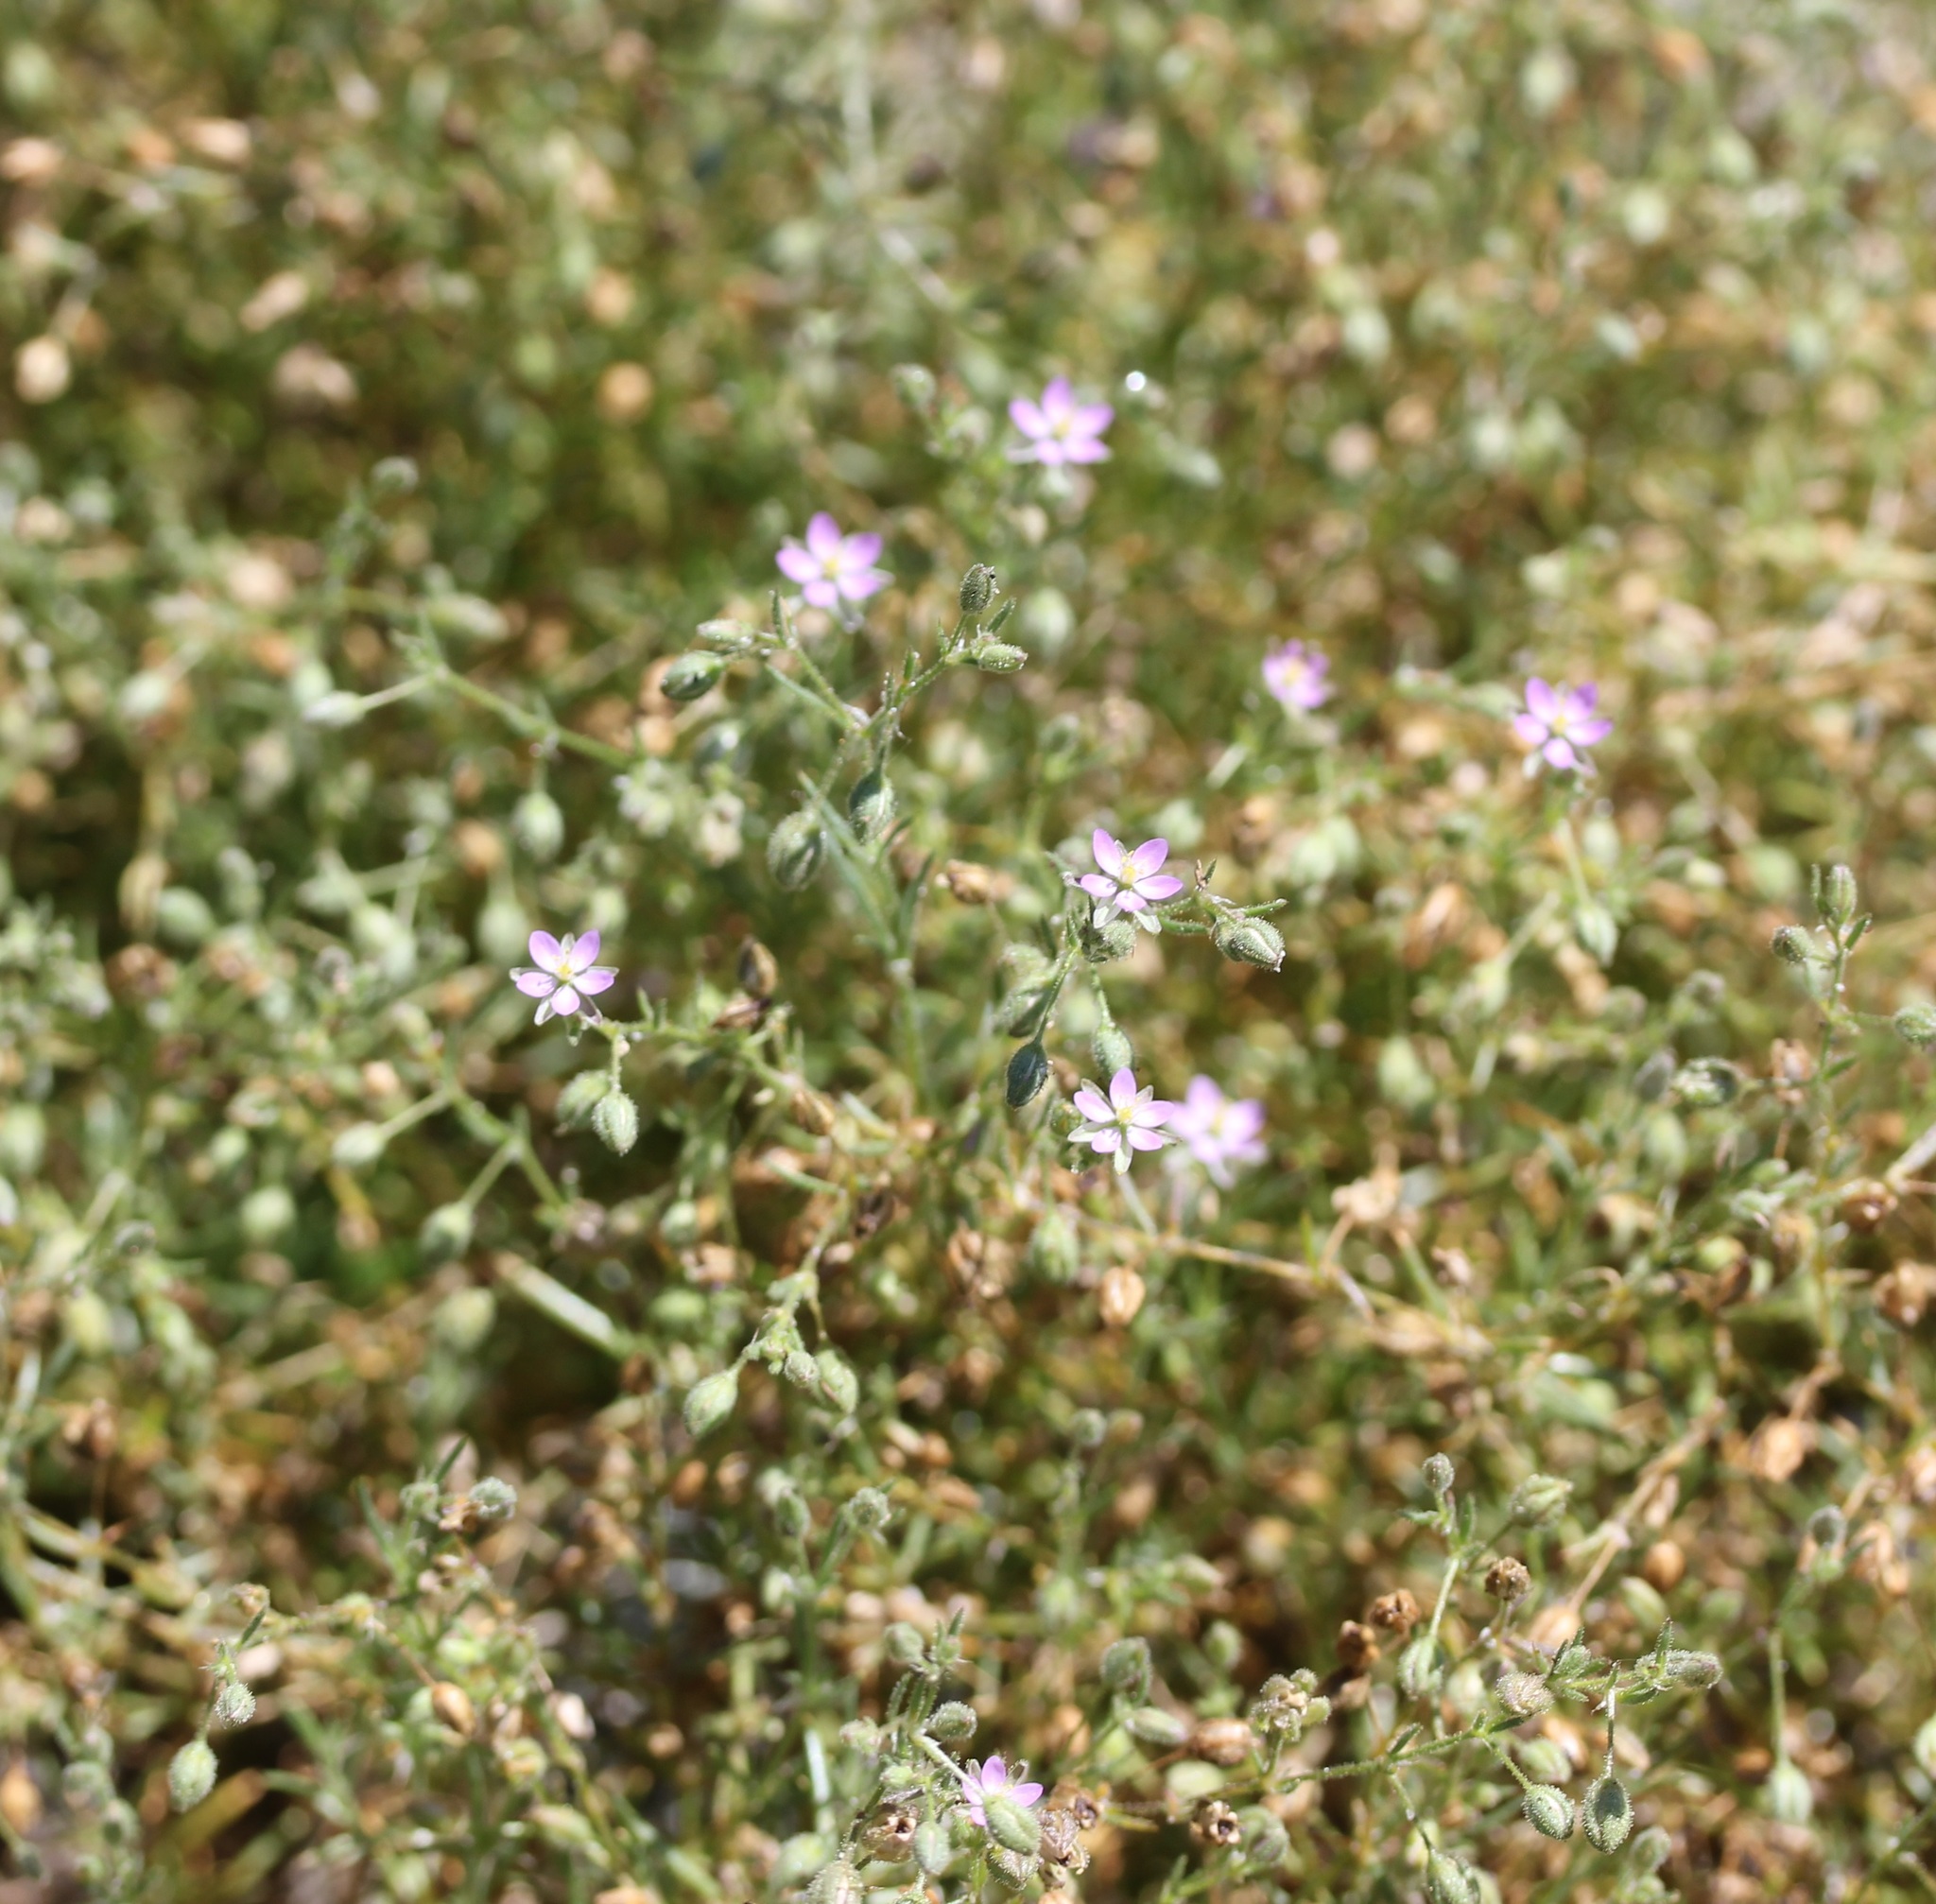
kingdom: Plantae
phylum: Tracheophyta
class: Magnoliopsida
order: Caryophyllales
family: Caryophyllaceae
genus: Spergularia
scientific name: Spergularia rubra
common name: Red sand-spurrey
